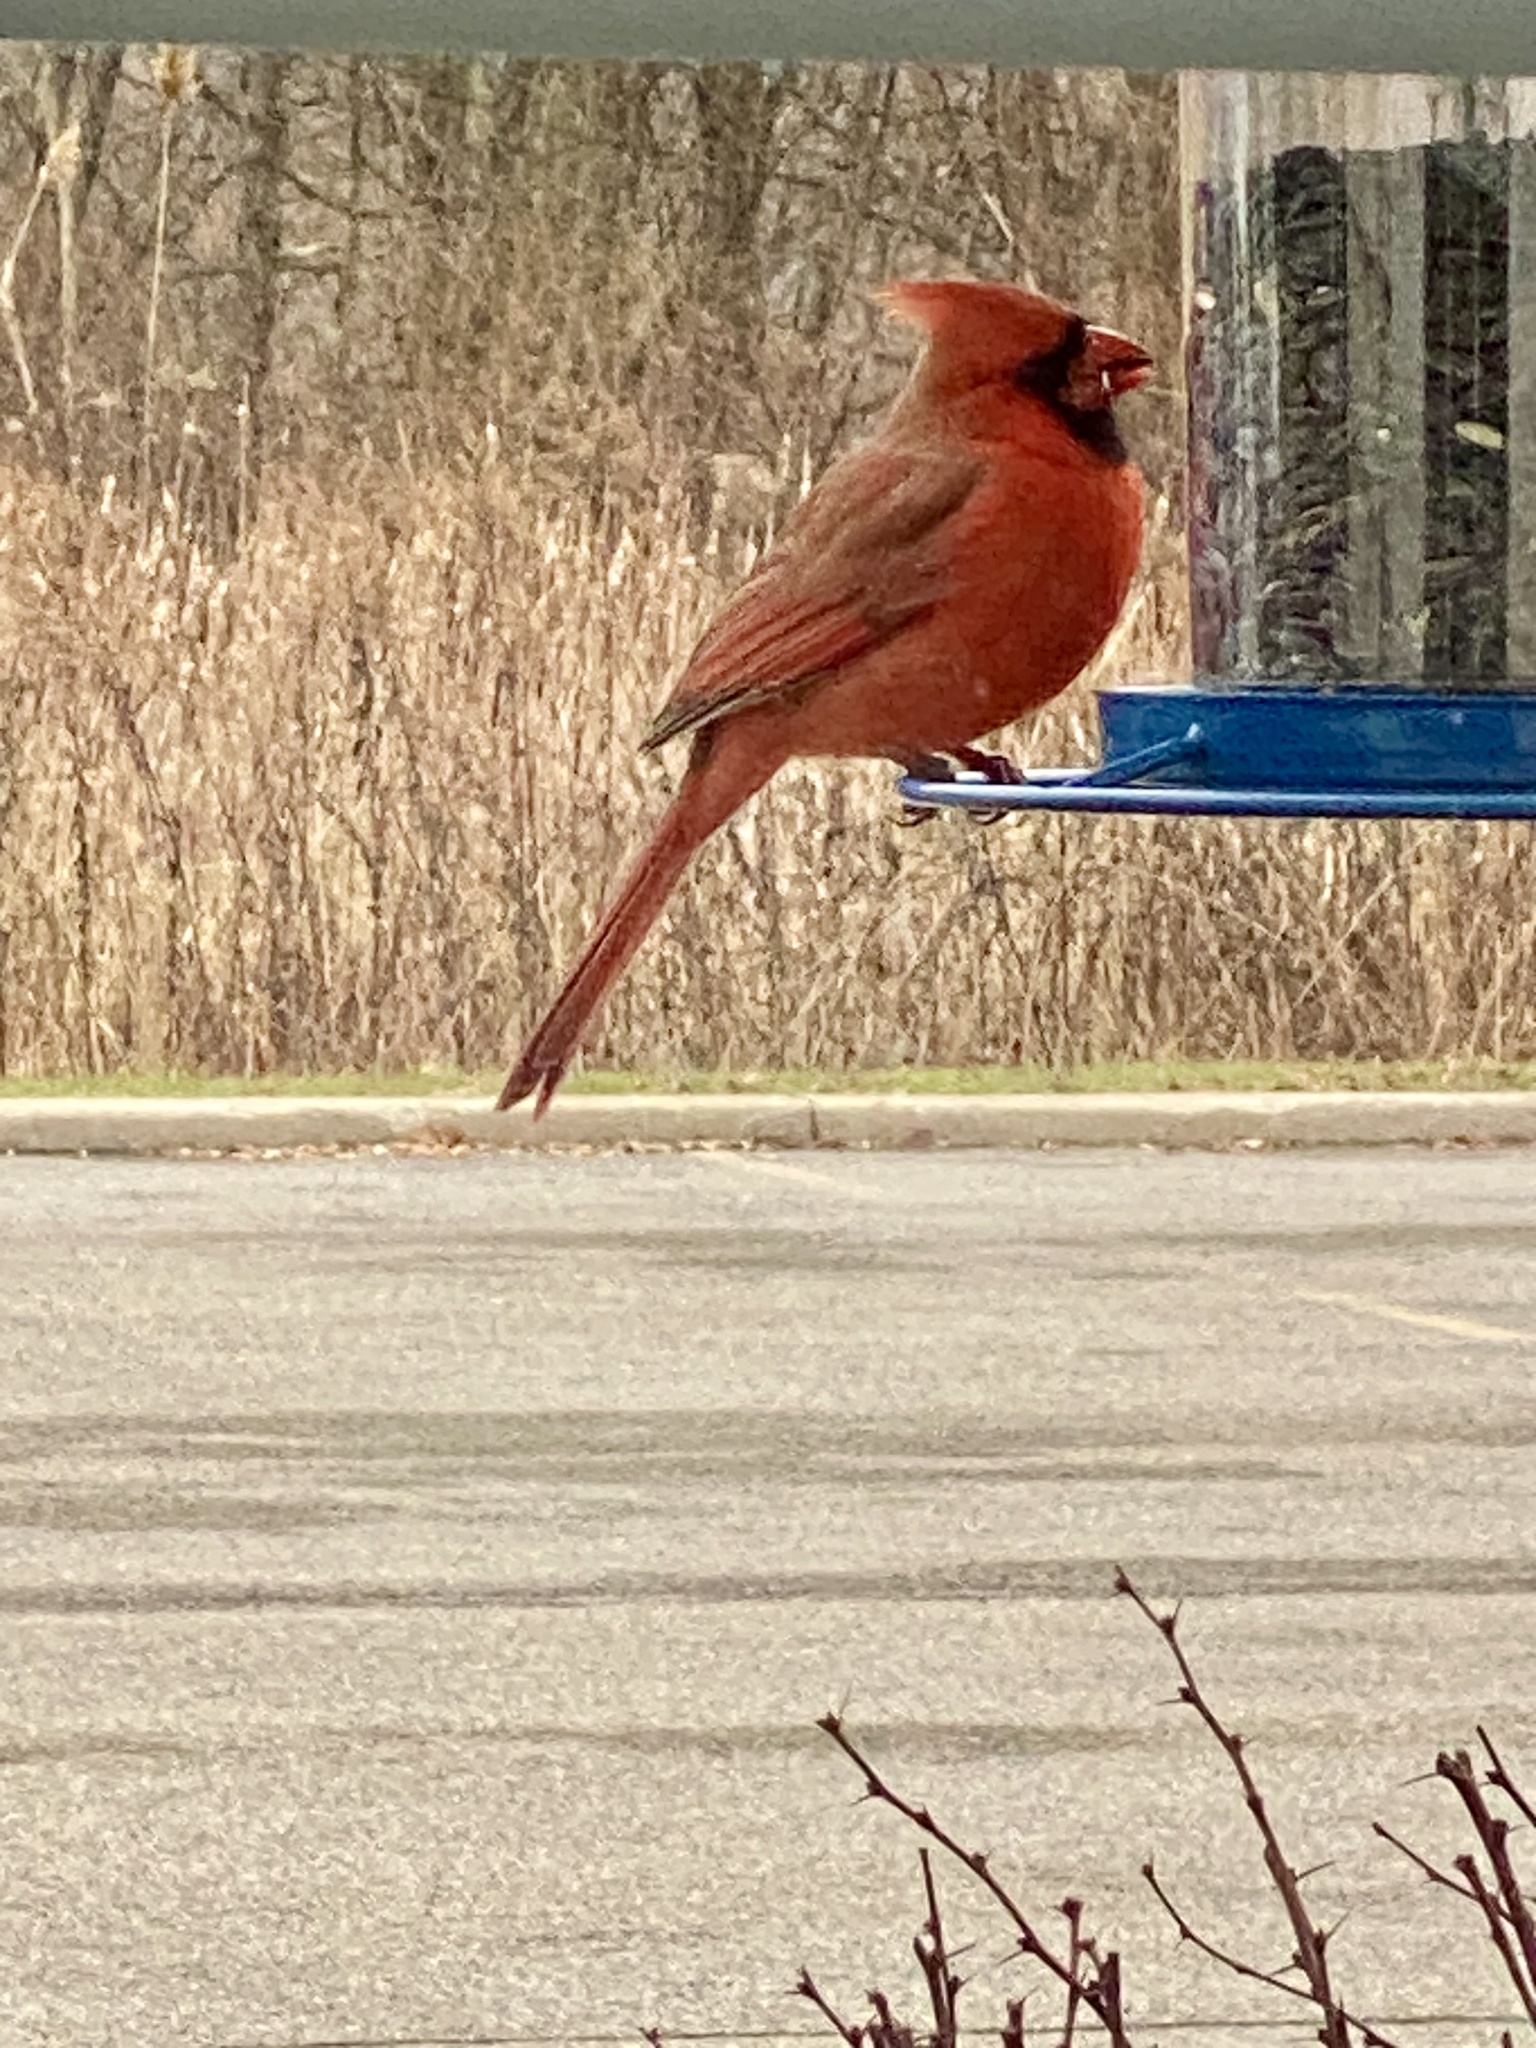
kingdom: Animalia
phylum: Chordata
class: Aves
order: Passeriformes
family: Cardinalidae
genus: Cardinalis
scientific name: Cardinalis cardinalis
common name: Northern cardinal
